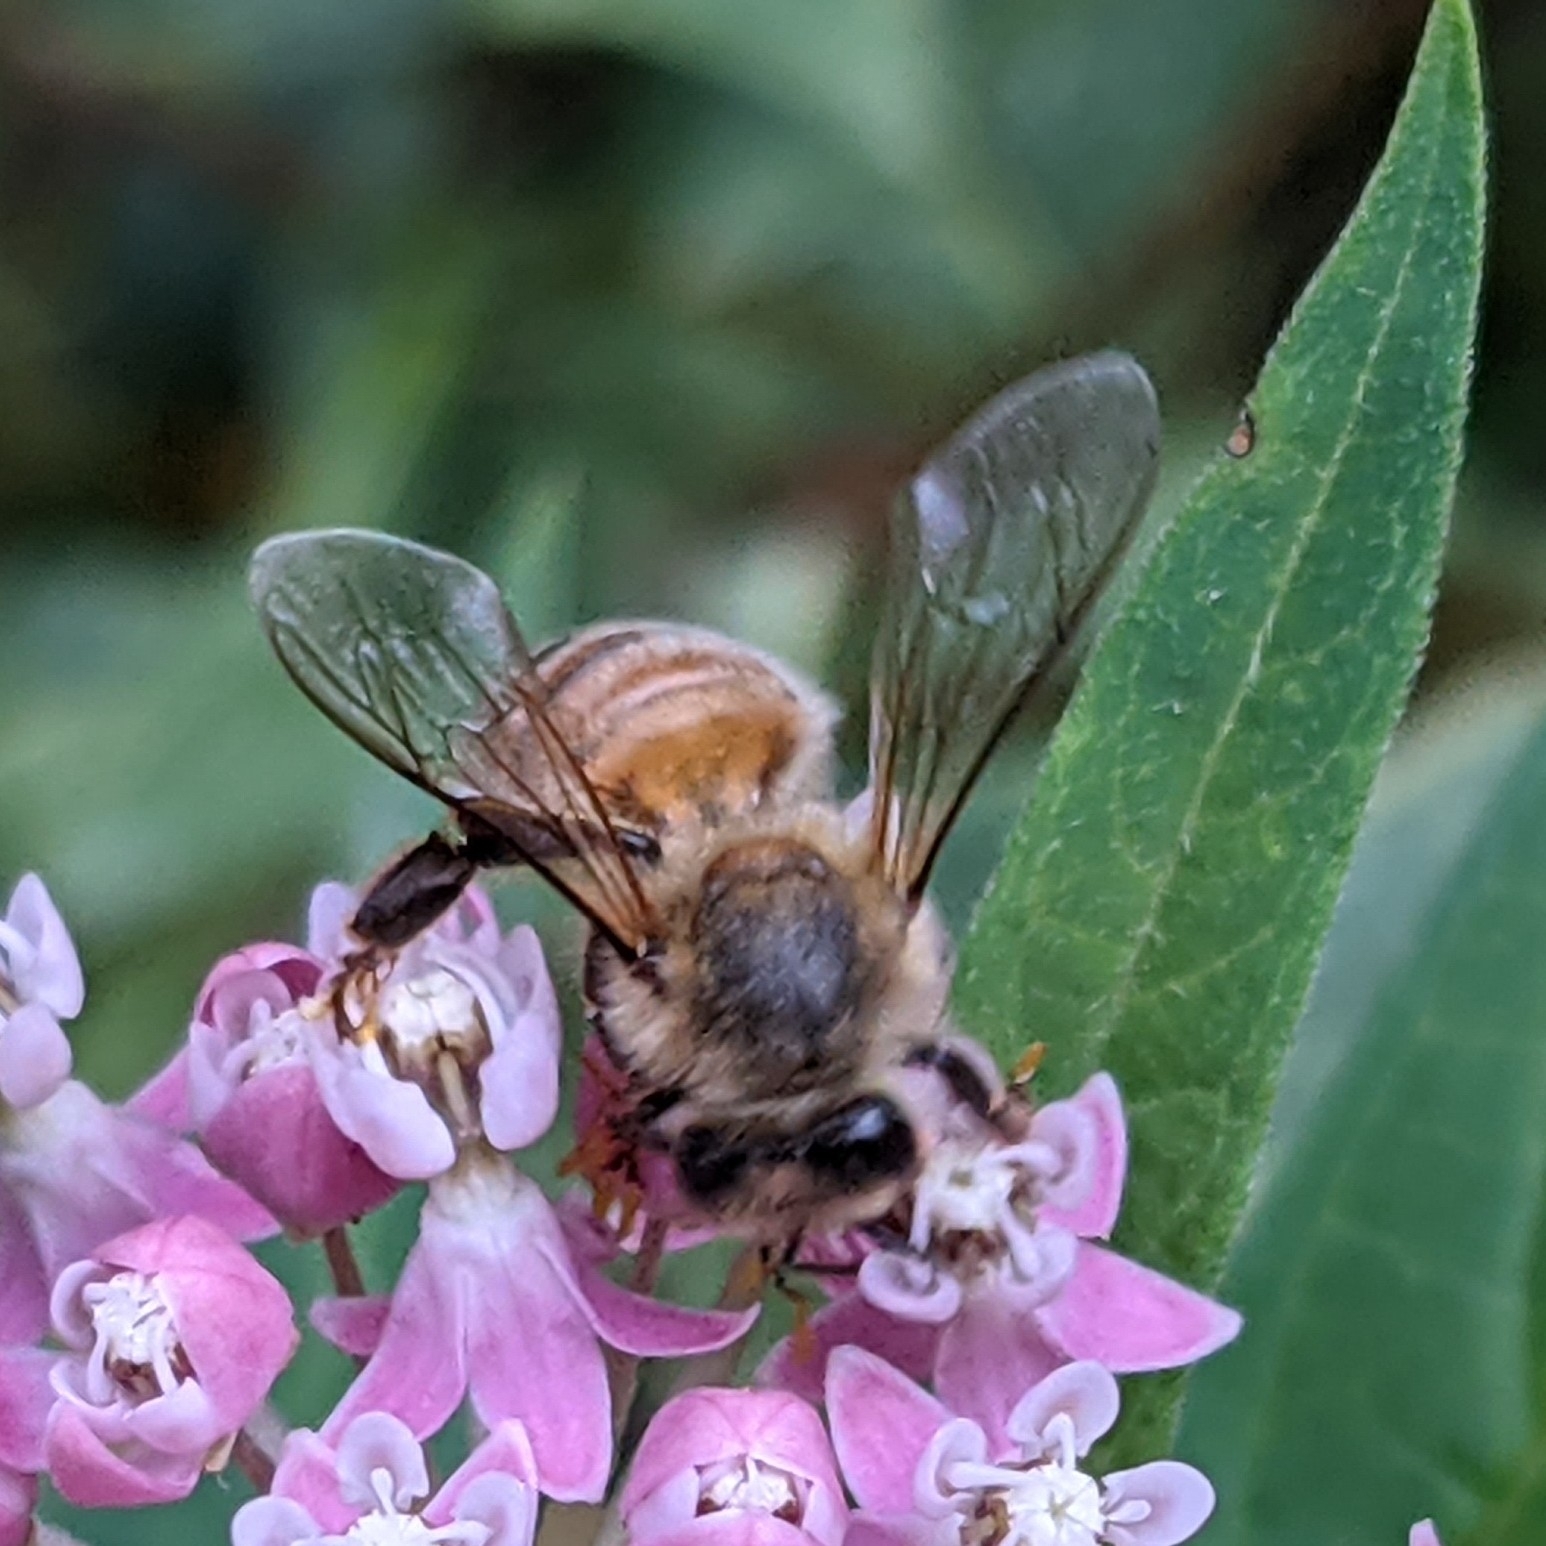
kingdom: Animalia
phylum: Arthropoda
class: Insecta
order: Hymenoptera
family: Apidae
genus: Apis
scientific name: Apis mellifera
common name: Honey bee
